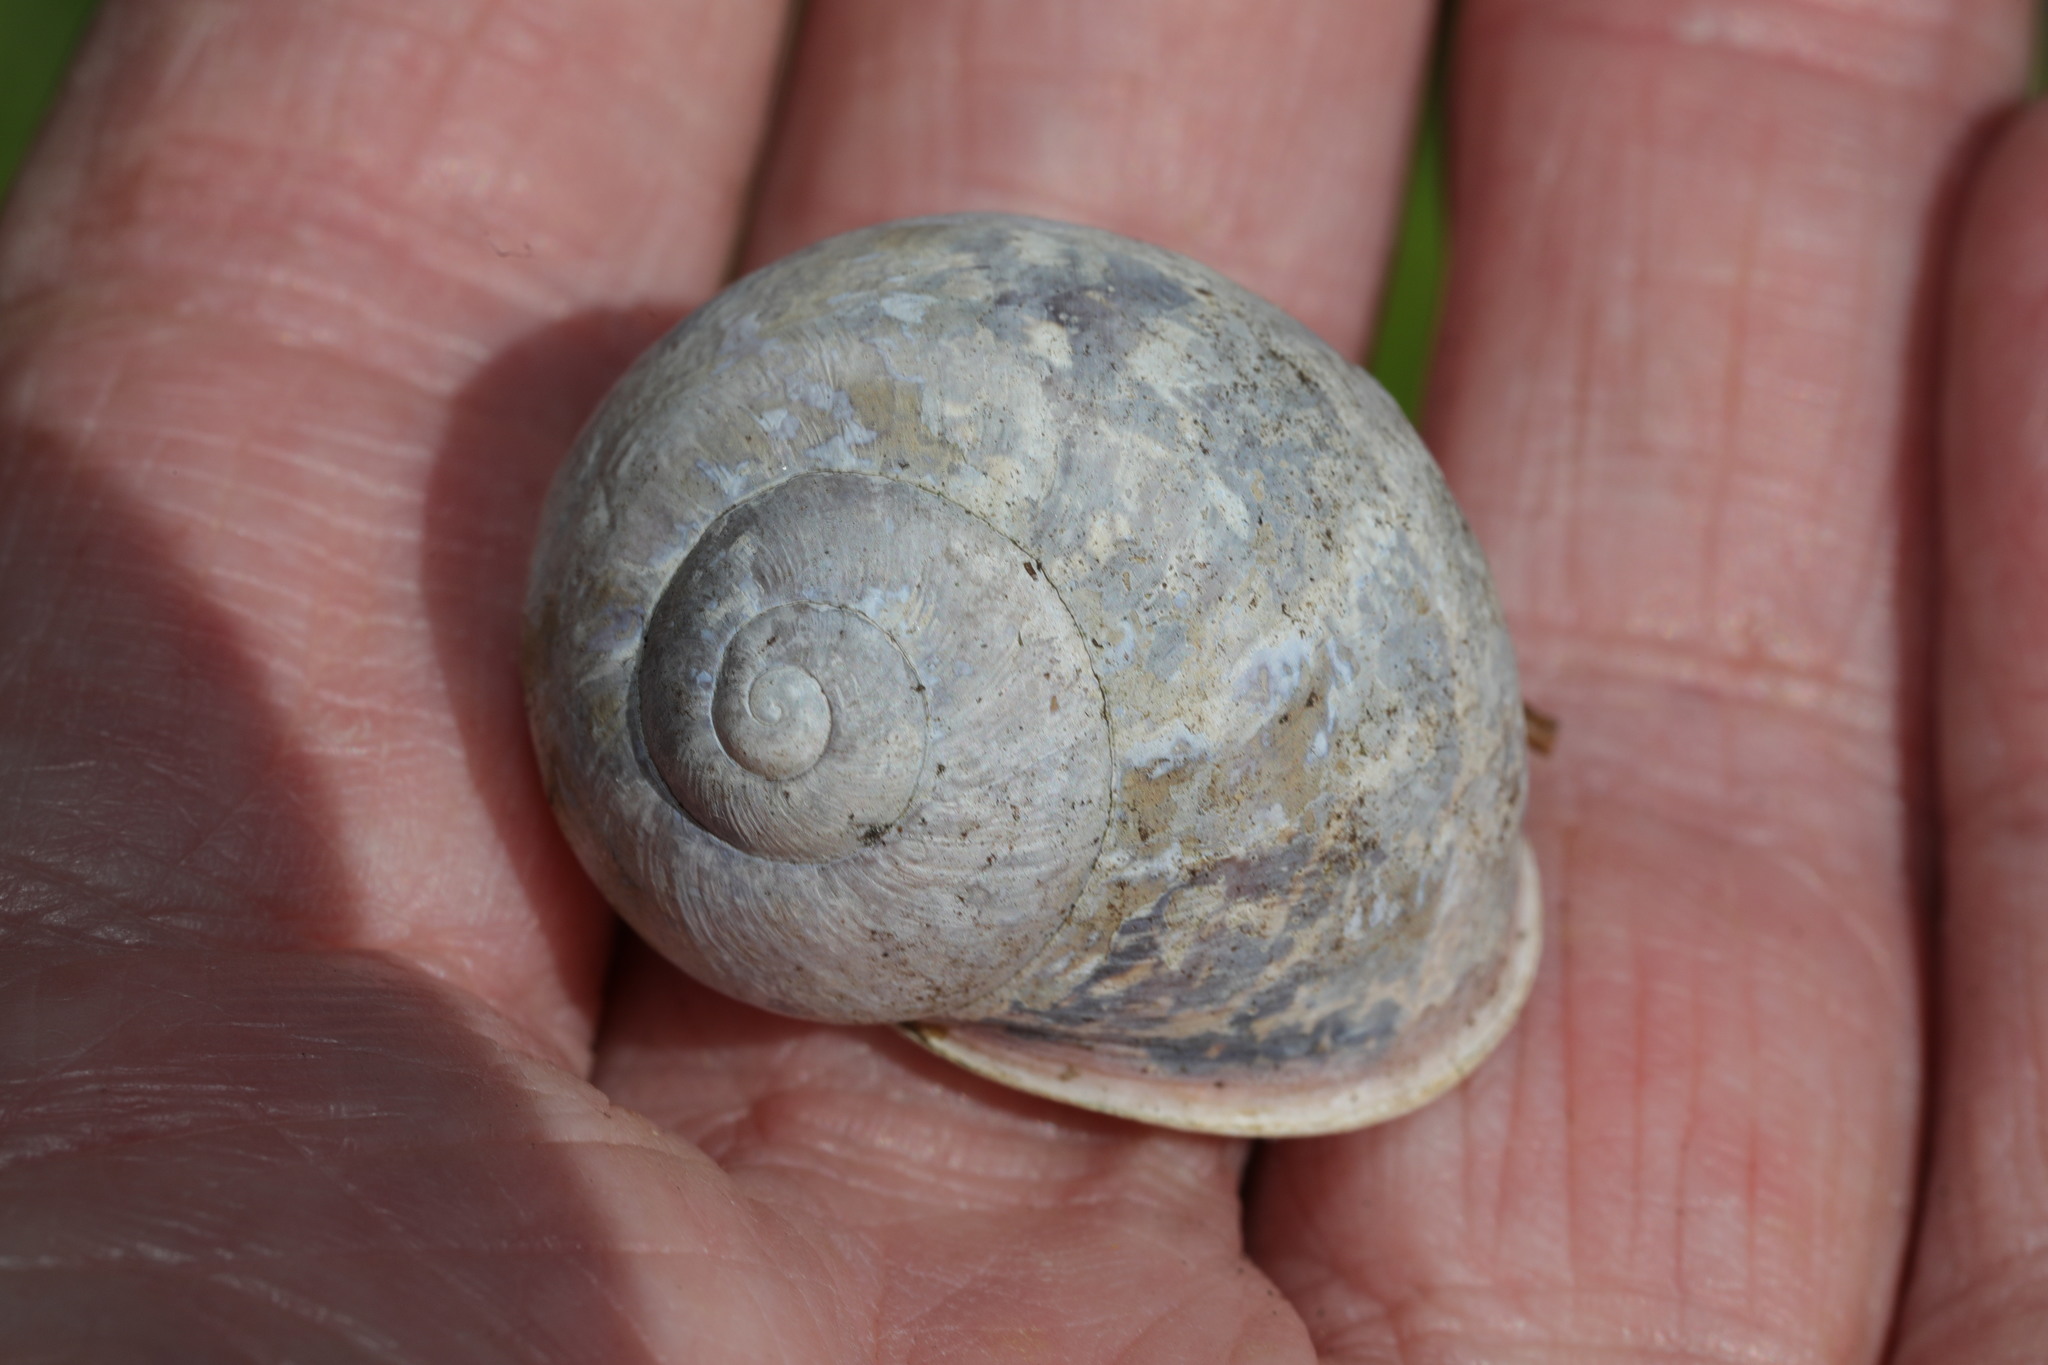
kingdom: Animalia
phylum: Mollusca
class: Gastropoda
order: Stylommatophora
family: Helicidae
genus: Cornu
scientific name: Cornu aspersum
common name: Brown garden snail
